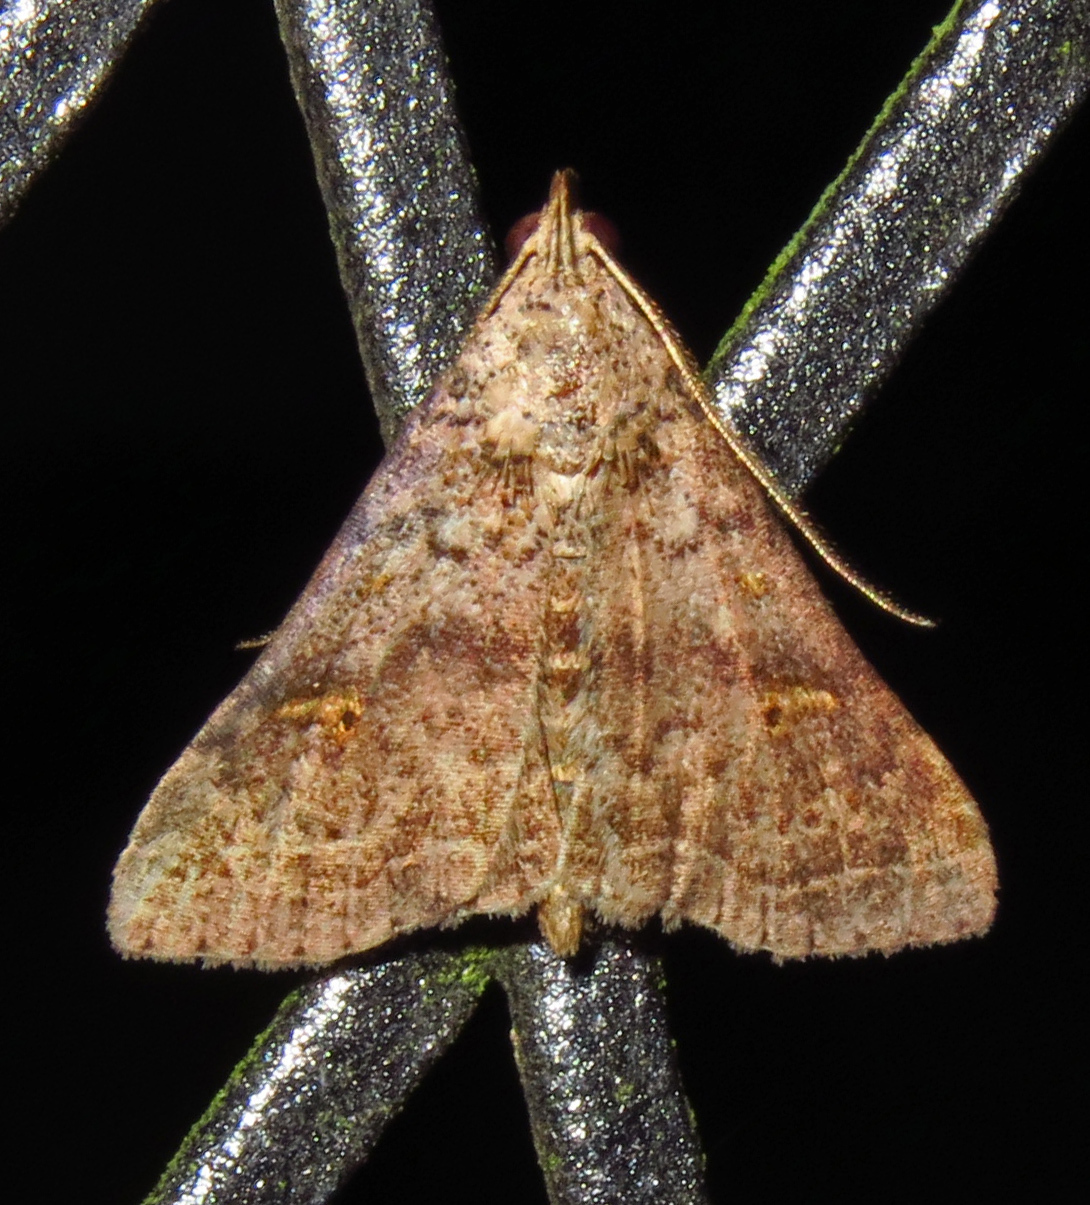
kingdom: Animalia
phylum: Arthropoda
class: Insecta
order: Lepidoptera
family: Erebidae
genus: Bleptina
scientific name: Bleptina caradrinalis
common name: Bent-winged owlet
